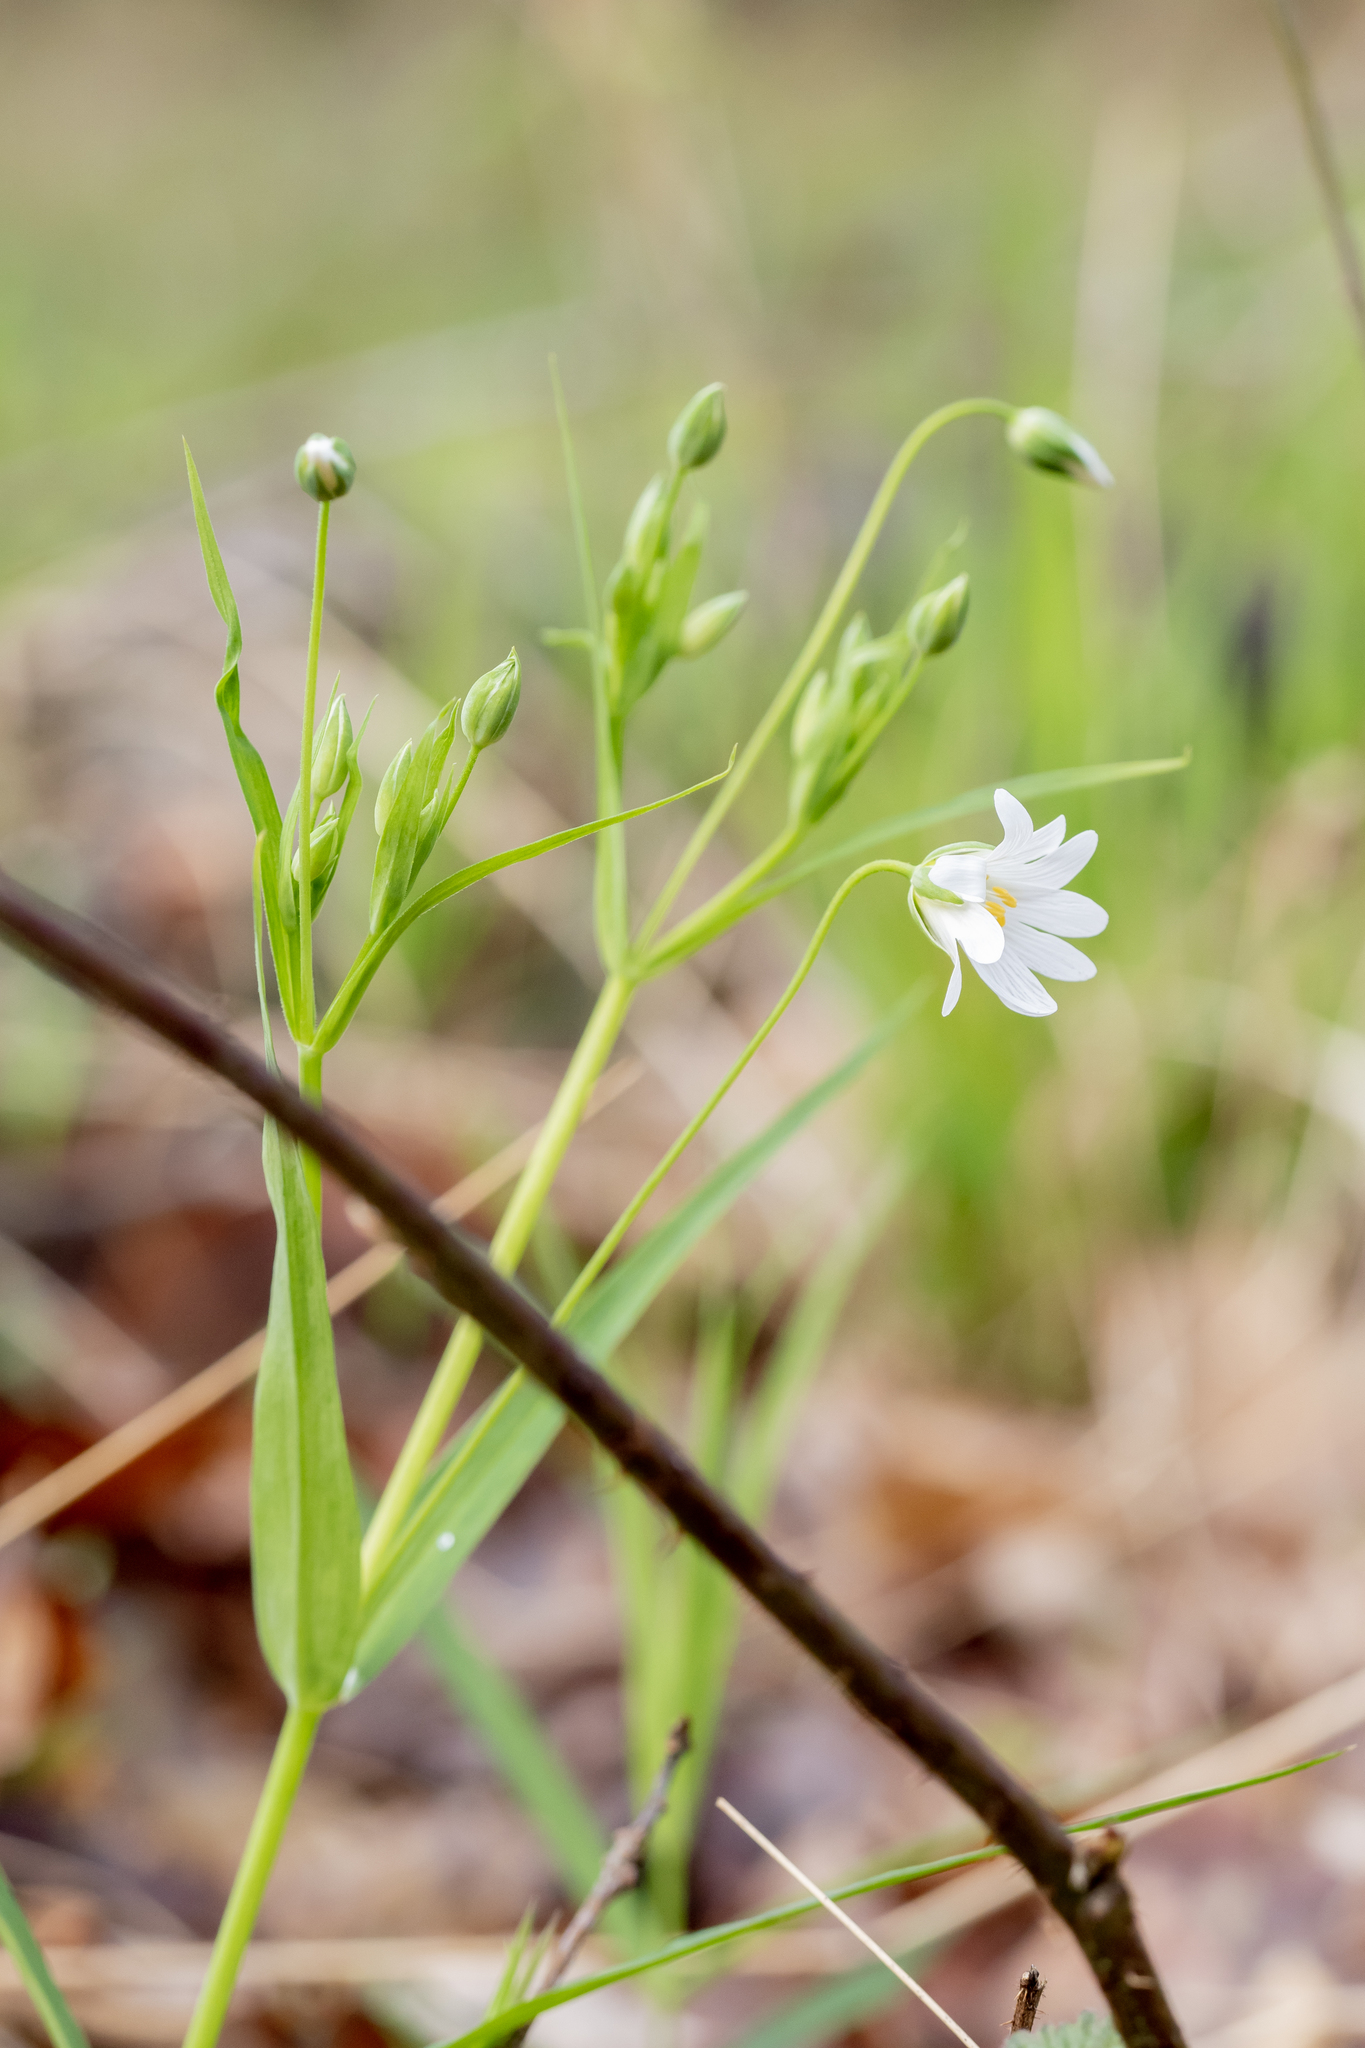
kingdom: Plantae
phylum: Tracheophyta
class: Magnoliopsida
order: Caryophyllales
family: Caryophyllaceae
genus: Rabelera
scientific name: Rabelera holostea
